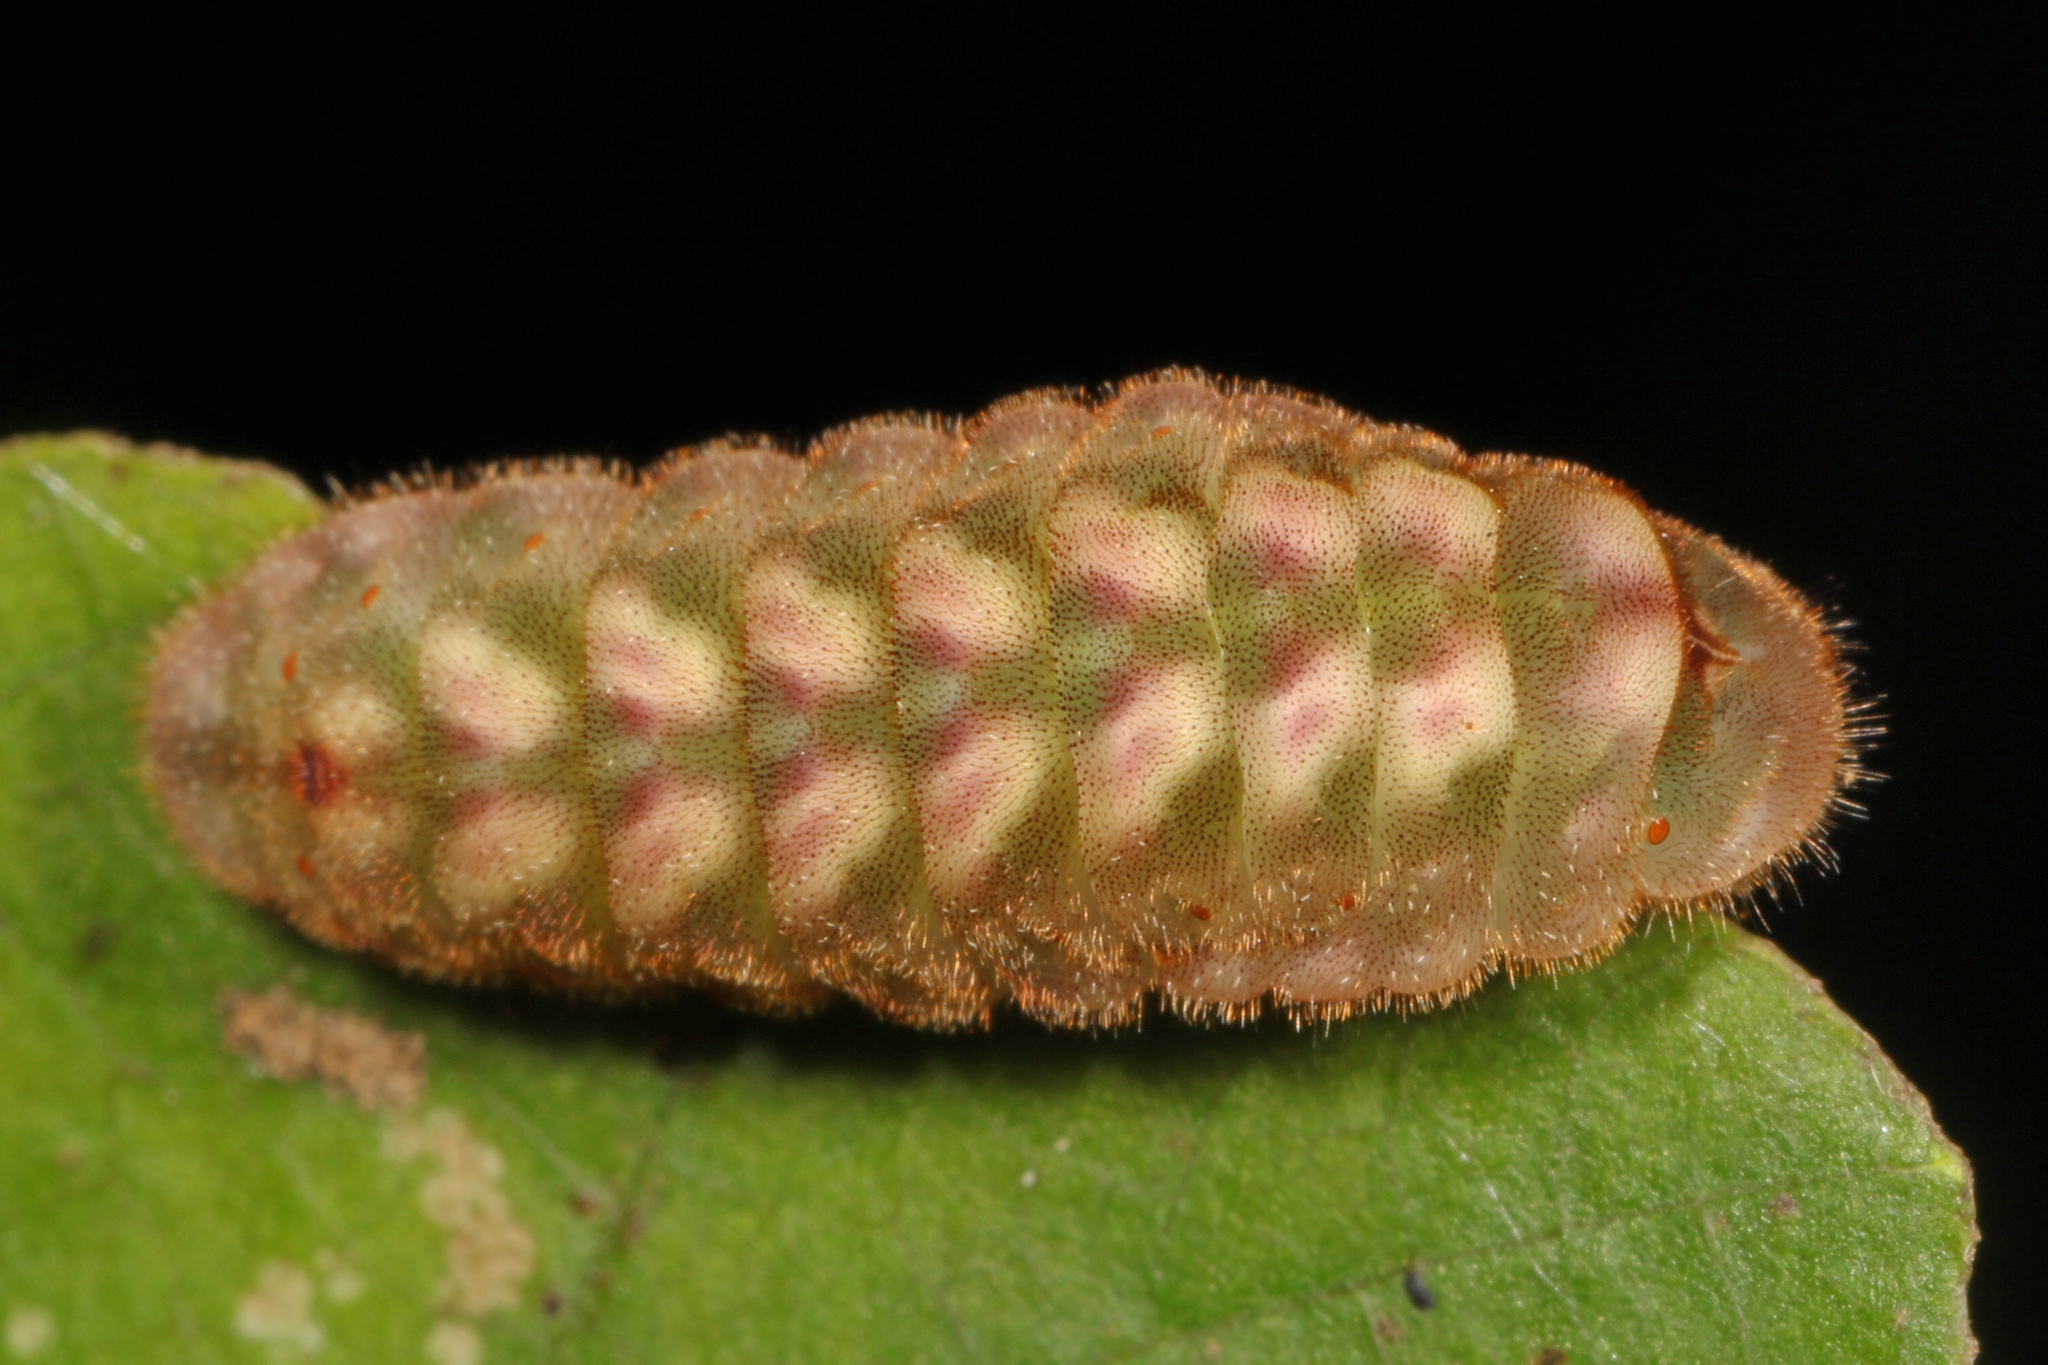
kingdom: Animalia
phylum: Arthropoda
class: Insecta
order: Lepidoptera
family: Lycaenidae
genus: Parrhasius
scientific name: Parrhasius m-album
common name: White m hairstreak
